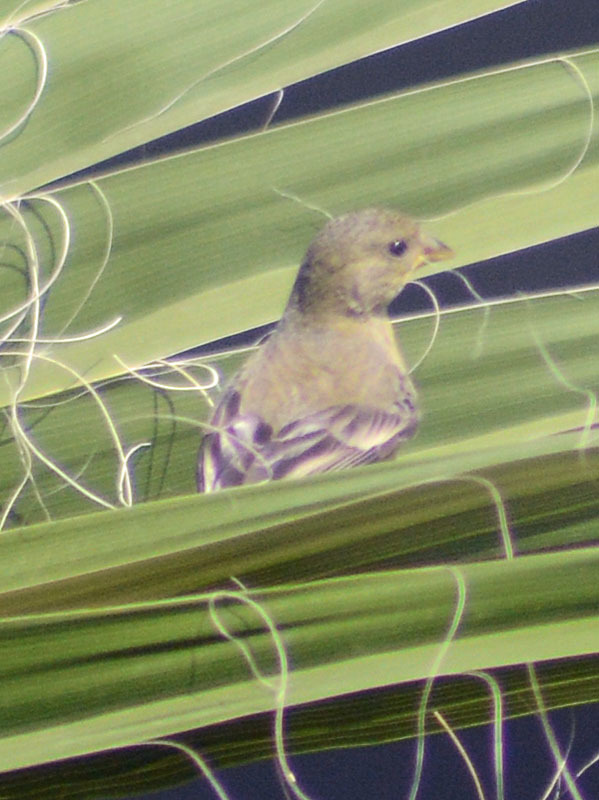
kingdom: Animalia
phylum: Chordata
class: Aves
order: Passeriformes
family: Fringillidae
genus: Spinus
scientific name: Spinus psaltria
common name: Lesser goldfinch
